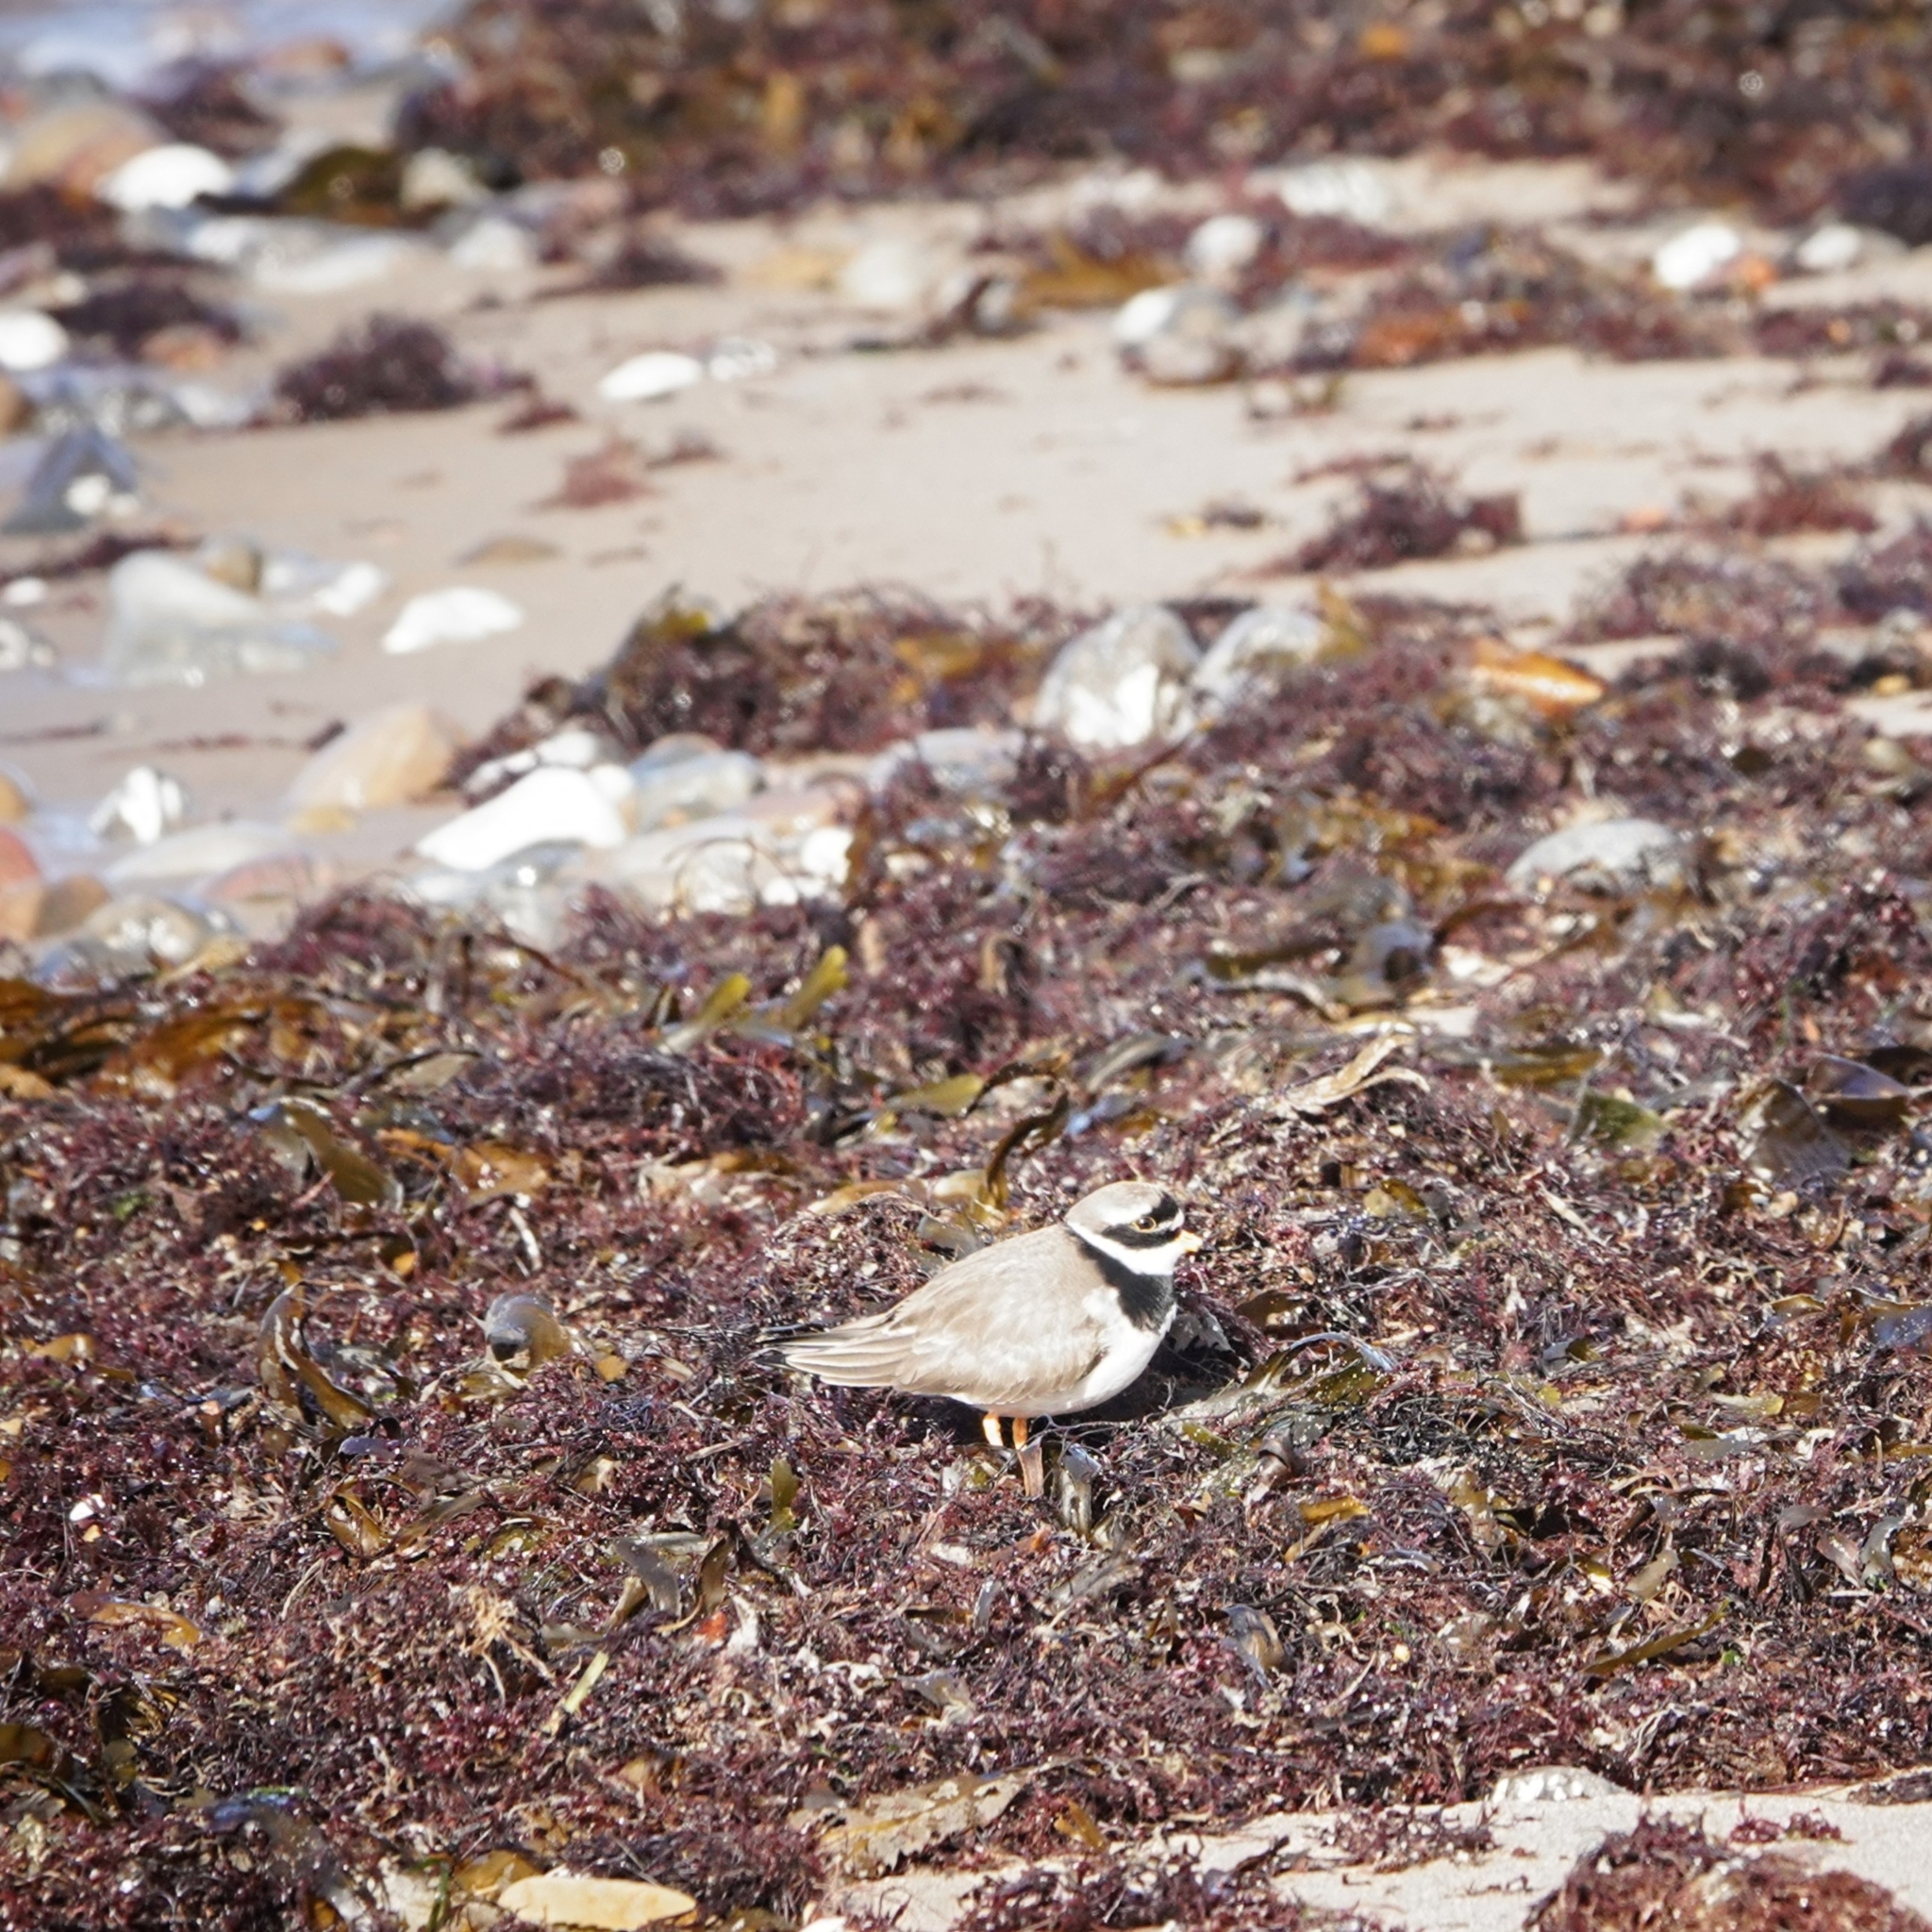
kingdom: Animalia
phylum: Chordata
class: Aves
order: Charadriiformes
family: Charadriidae
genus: Charadrius
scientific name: Charadrius hiaticula
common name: Common ringed plover
